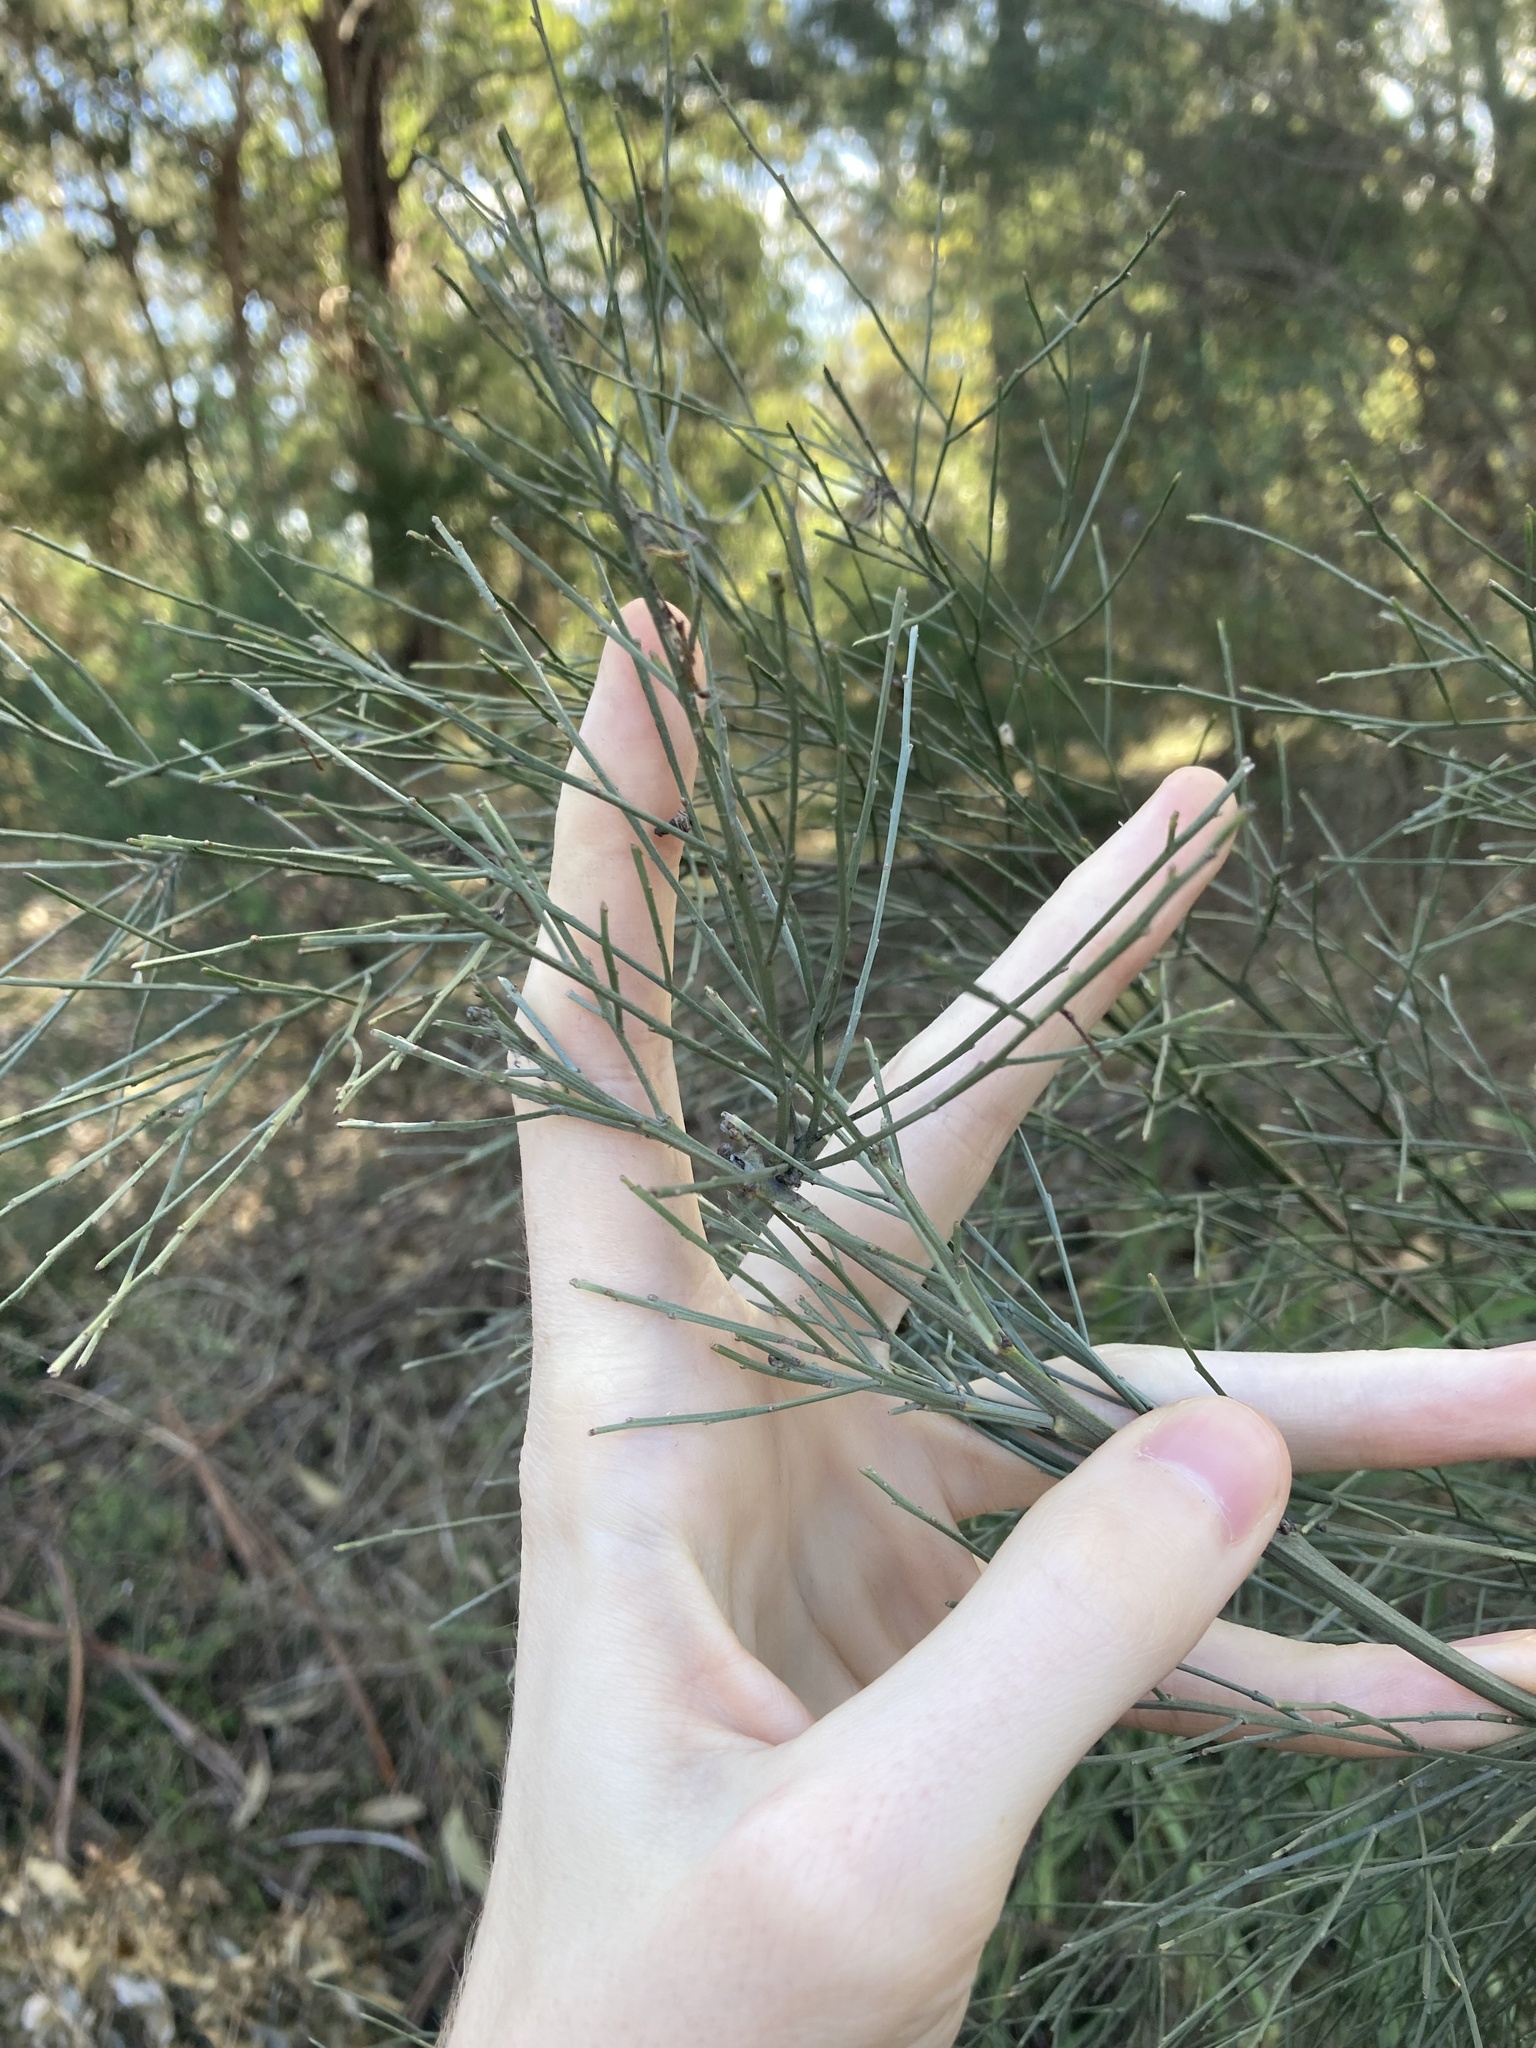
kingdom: Plantae
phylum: Tracheophyta
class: Magnoliopsida
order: Fabales
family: Fabaceae
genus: Jacksonia
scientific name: Jacksonia scoparia
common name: Dogwood
